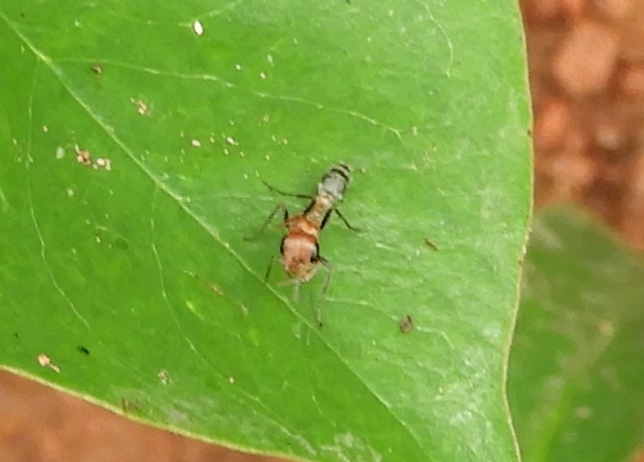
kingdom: Animalia
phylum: Arthropoda
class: Insecta
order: Hymenoptera
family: Formicidae
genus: Pseudomyrmex
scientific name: Pseudomyrmex
